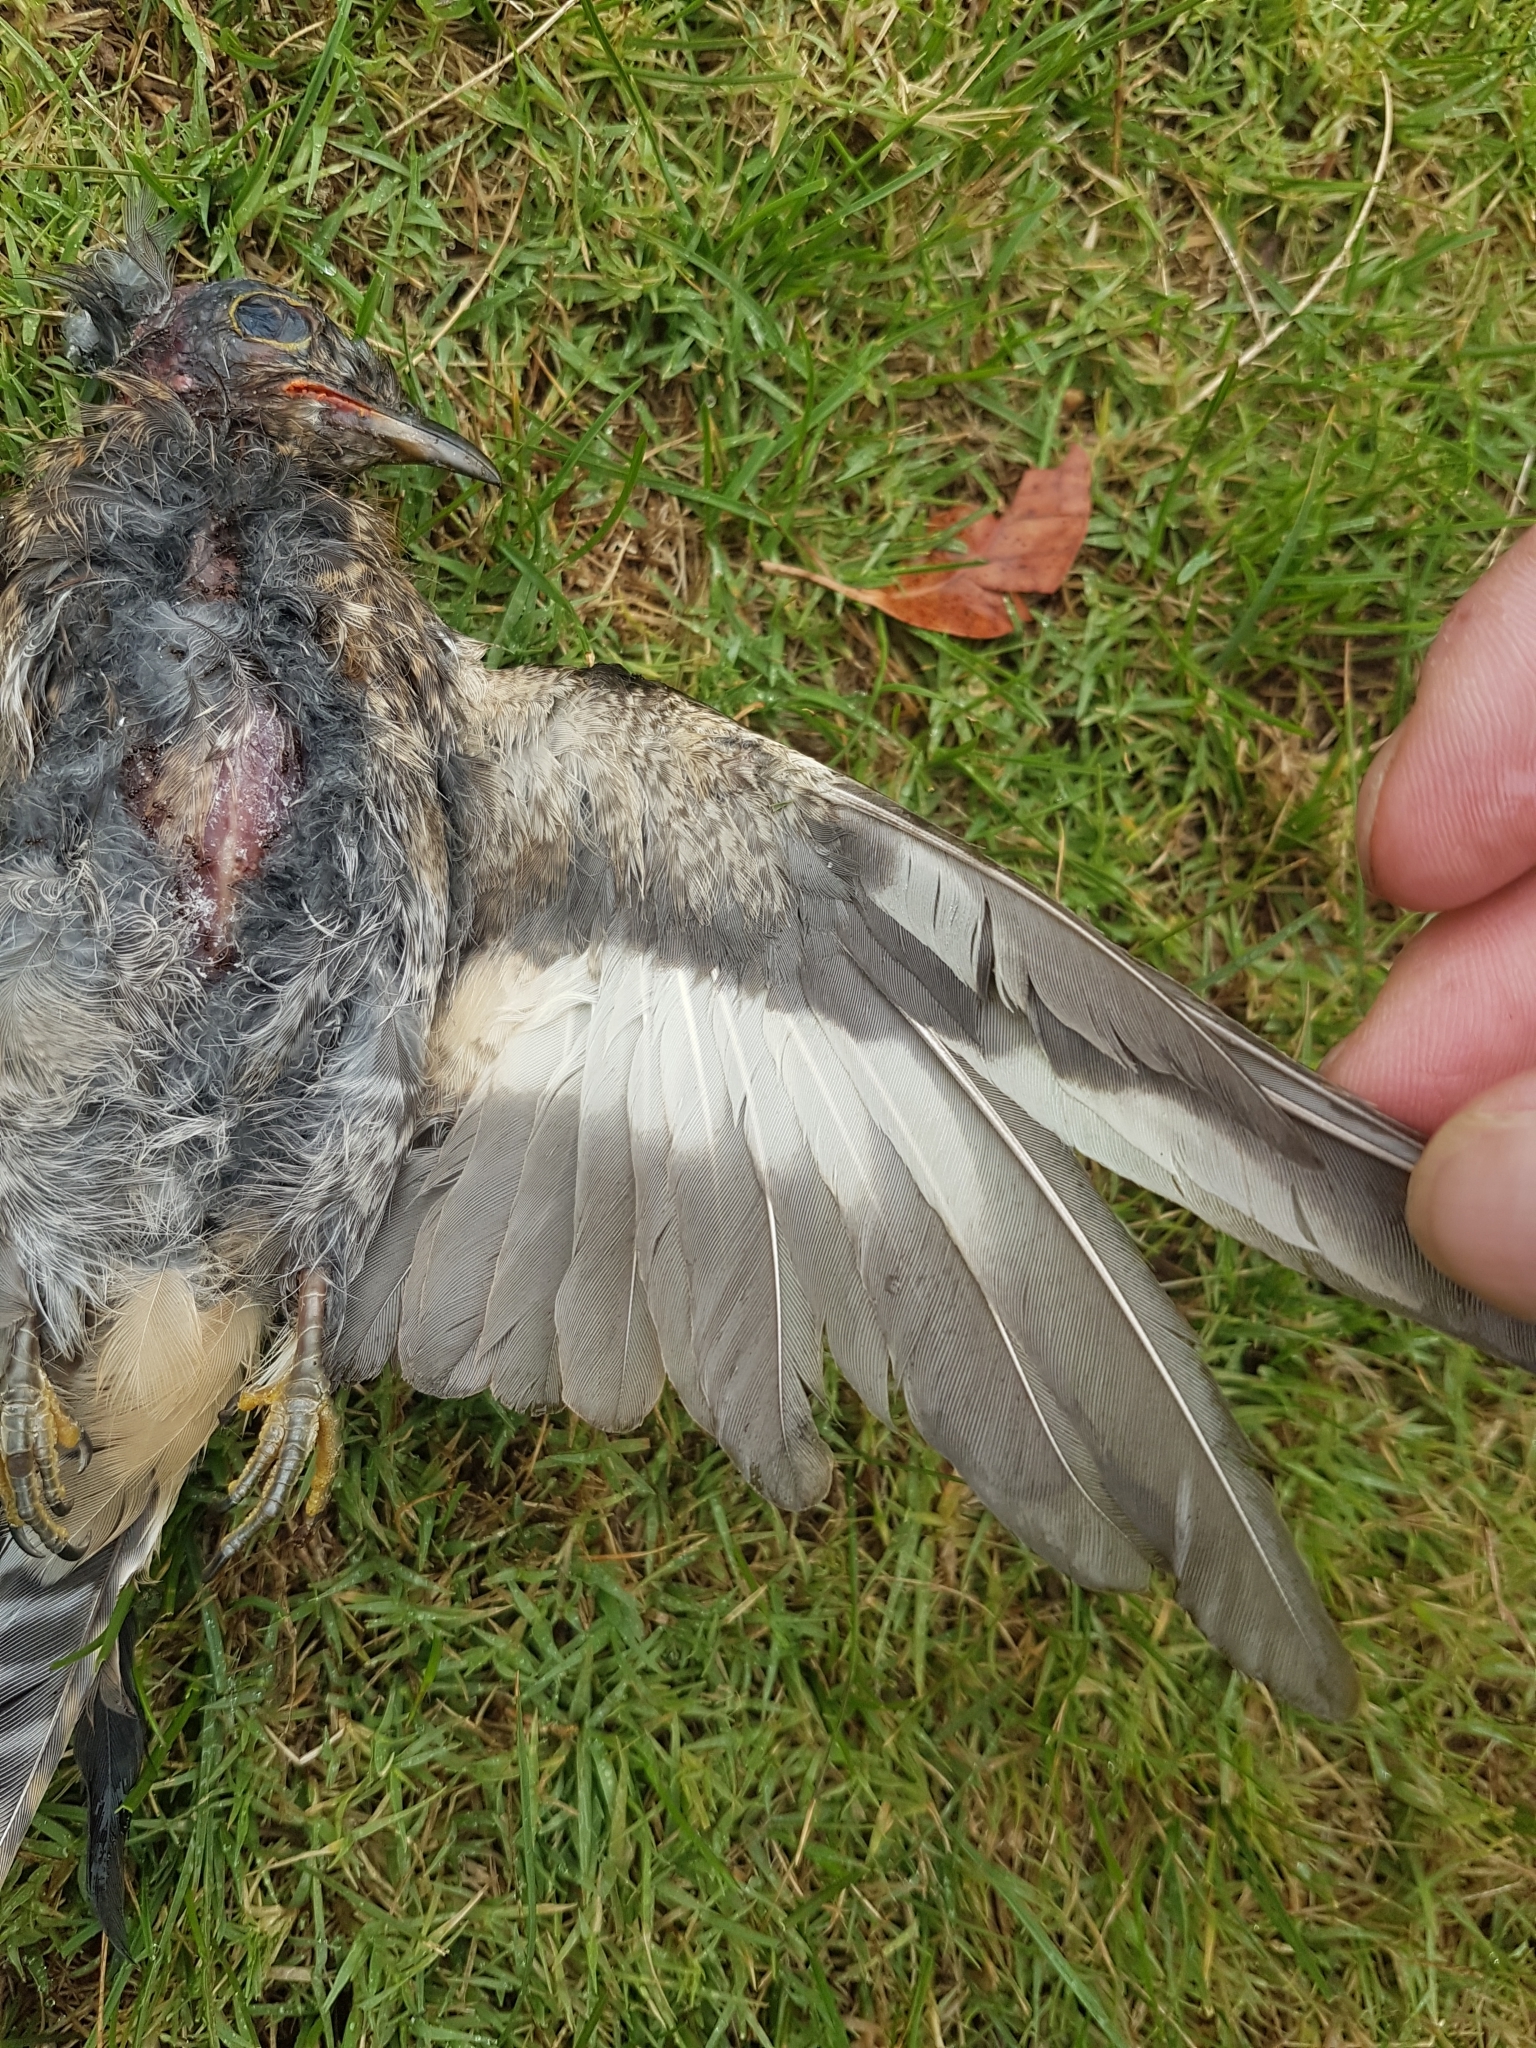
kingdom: Animalia
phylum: Chordata
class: Aves
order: Cuculiformes
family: Cuculidae
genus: Cacomantis
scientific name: Cacomantis flabelliformis
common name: Fan-tailed cuckoo
